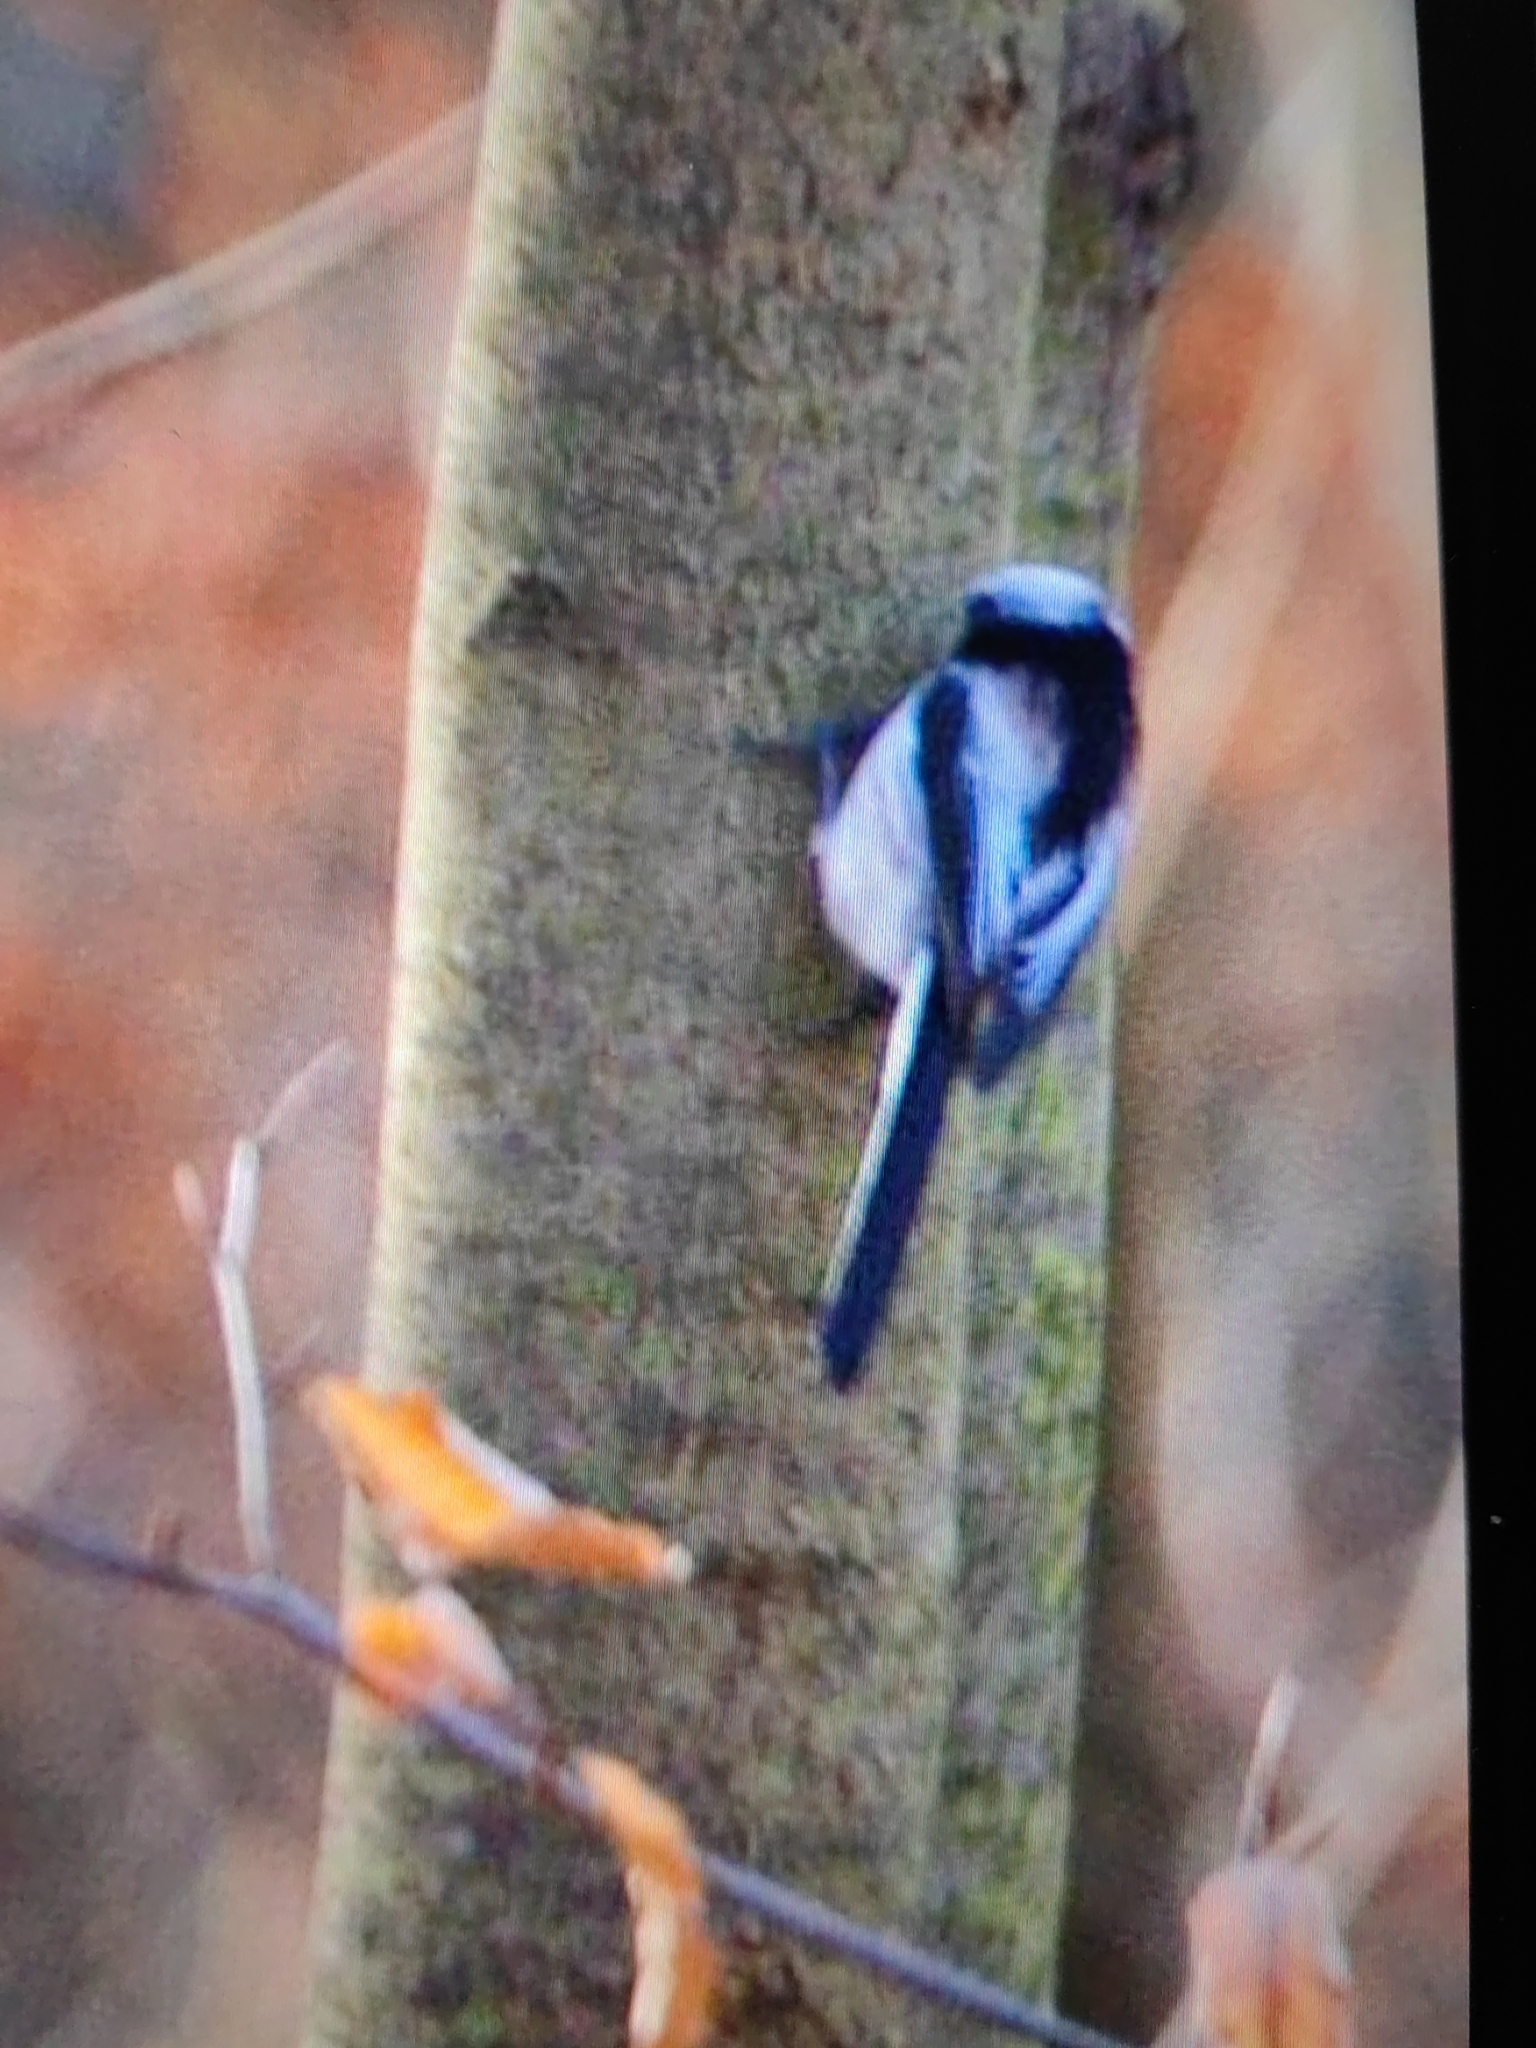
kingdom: Animalia
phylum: Chordata
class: Aves
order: Passeriformes
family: Aegithalidae
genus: Aegithalos
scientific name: Aegithalos caudatus
